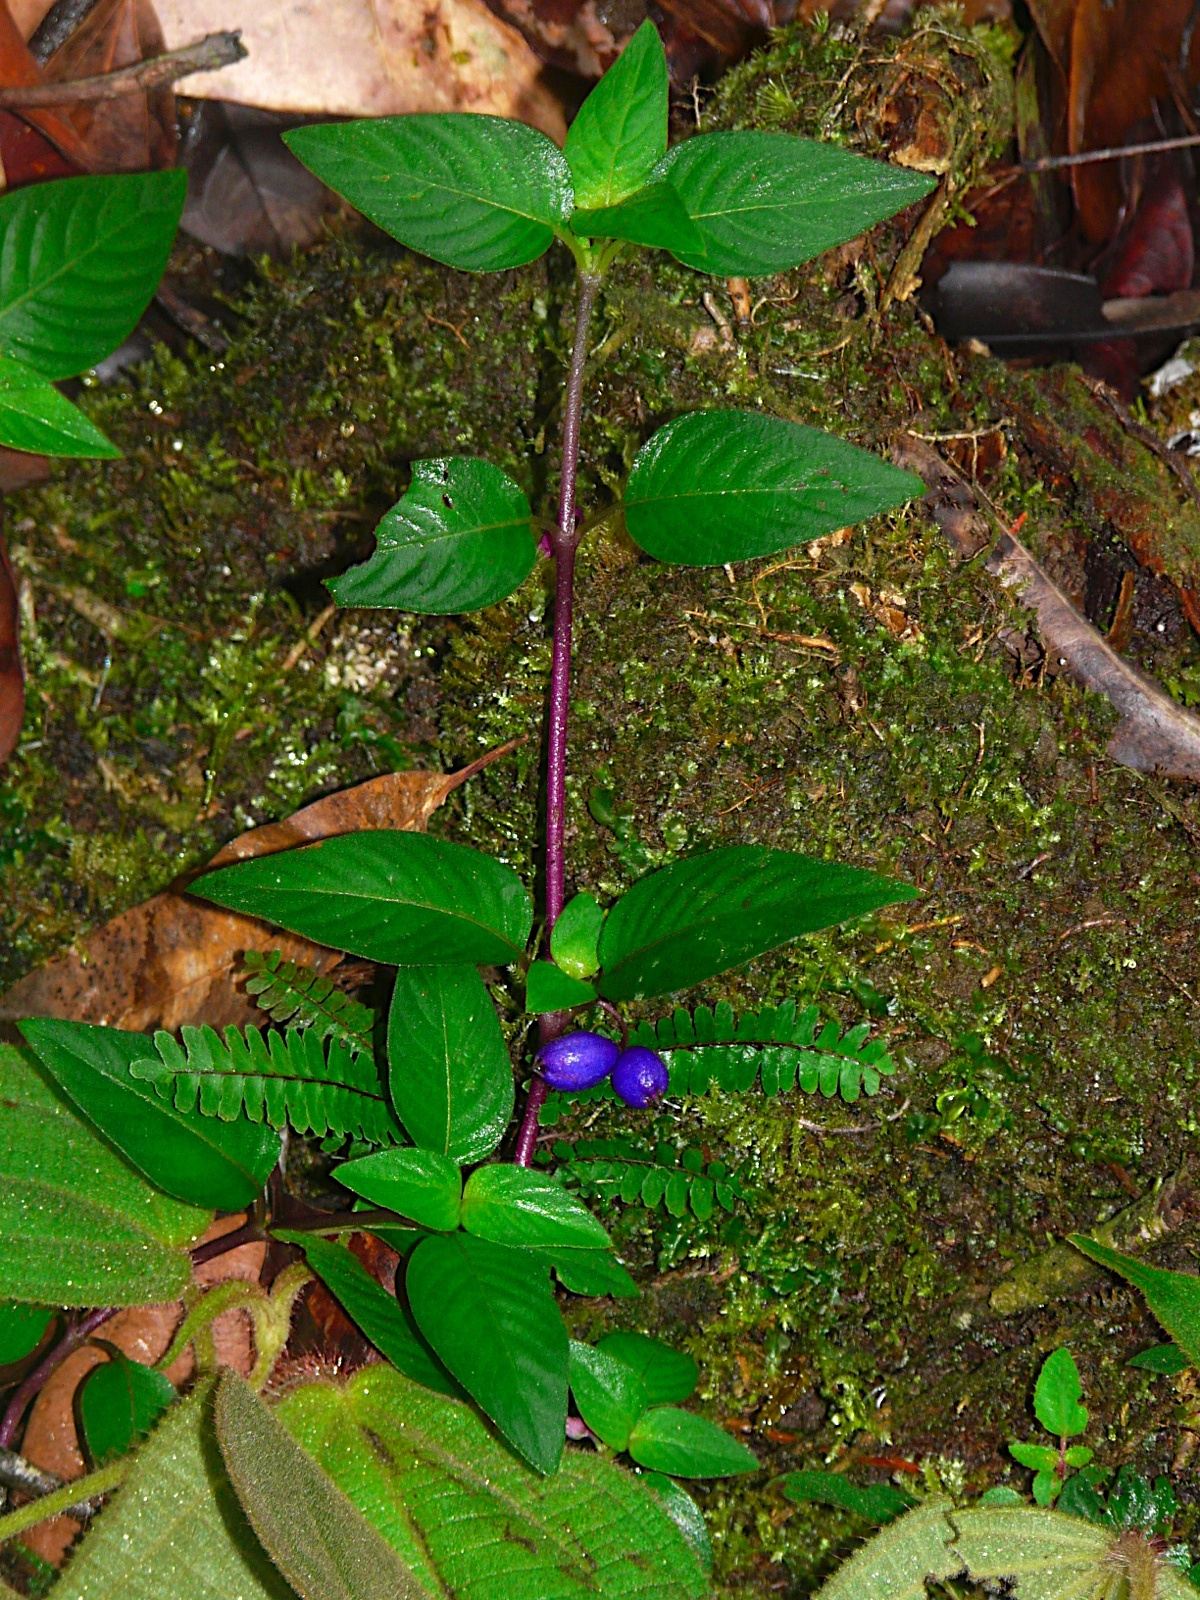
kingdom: Plantae
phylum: Tracheophyta
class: Magnoliopsida
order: Gentianales
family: Rubiaceae
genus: Coccocypselum
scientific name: Coccocypselum hirsutum
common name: Yerba de guava
